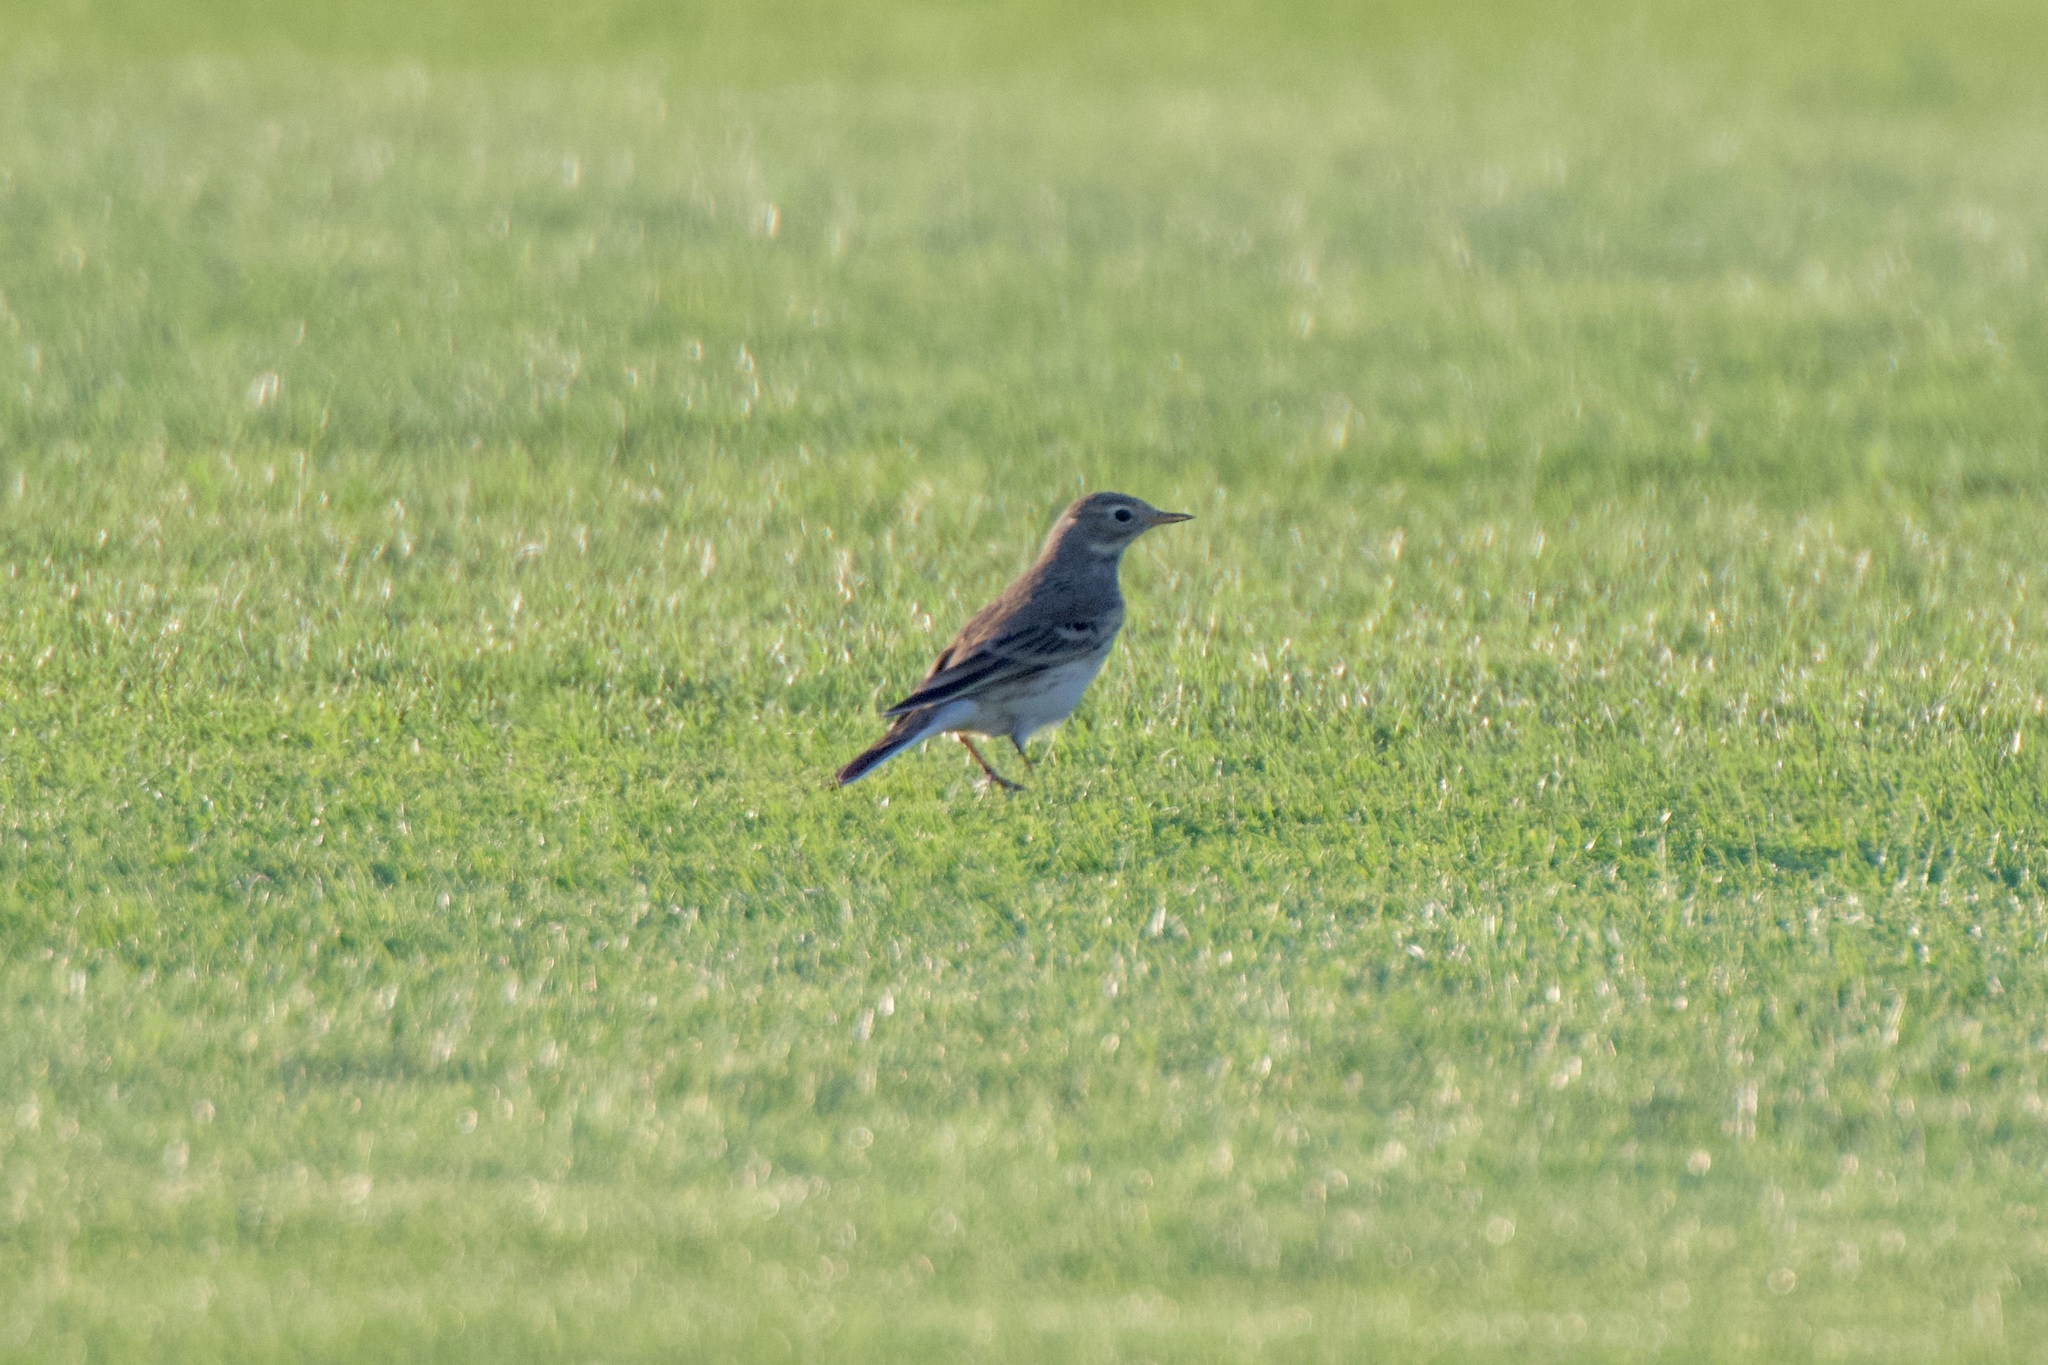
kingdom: Animalia
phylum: Chordata
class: Aves
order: Passeriformes
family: Motacillidae
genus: Anthus
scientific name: Anthus rubescens
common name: Buff-bellied pipit
